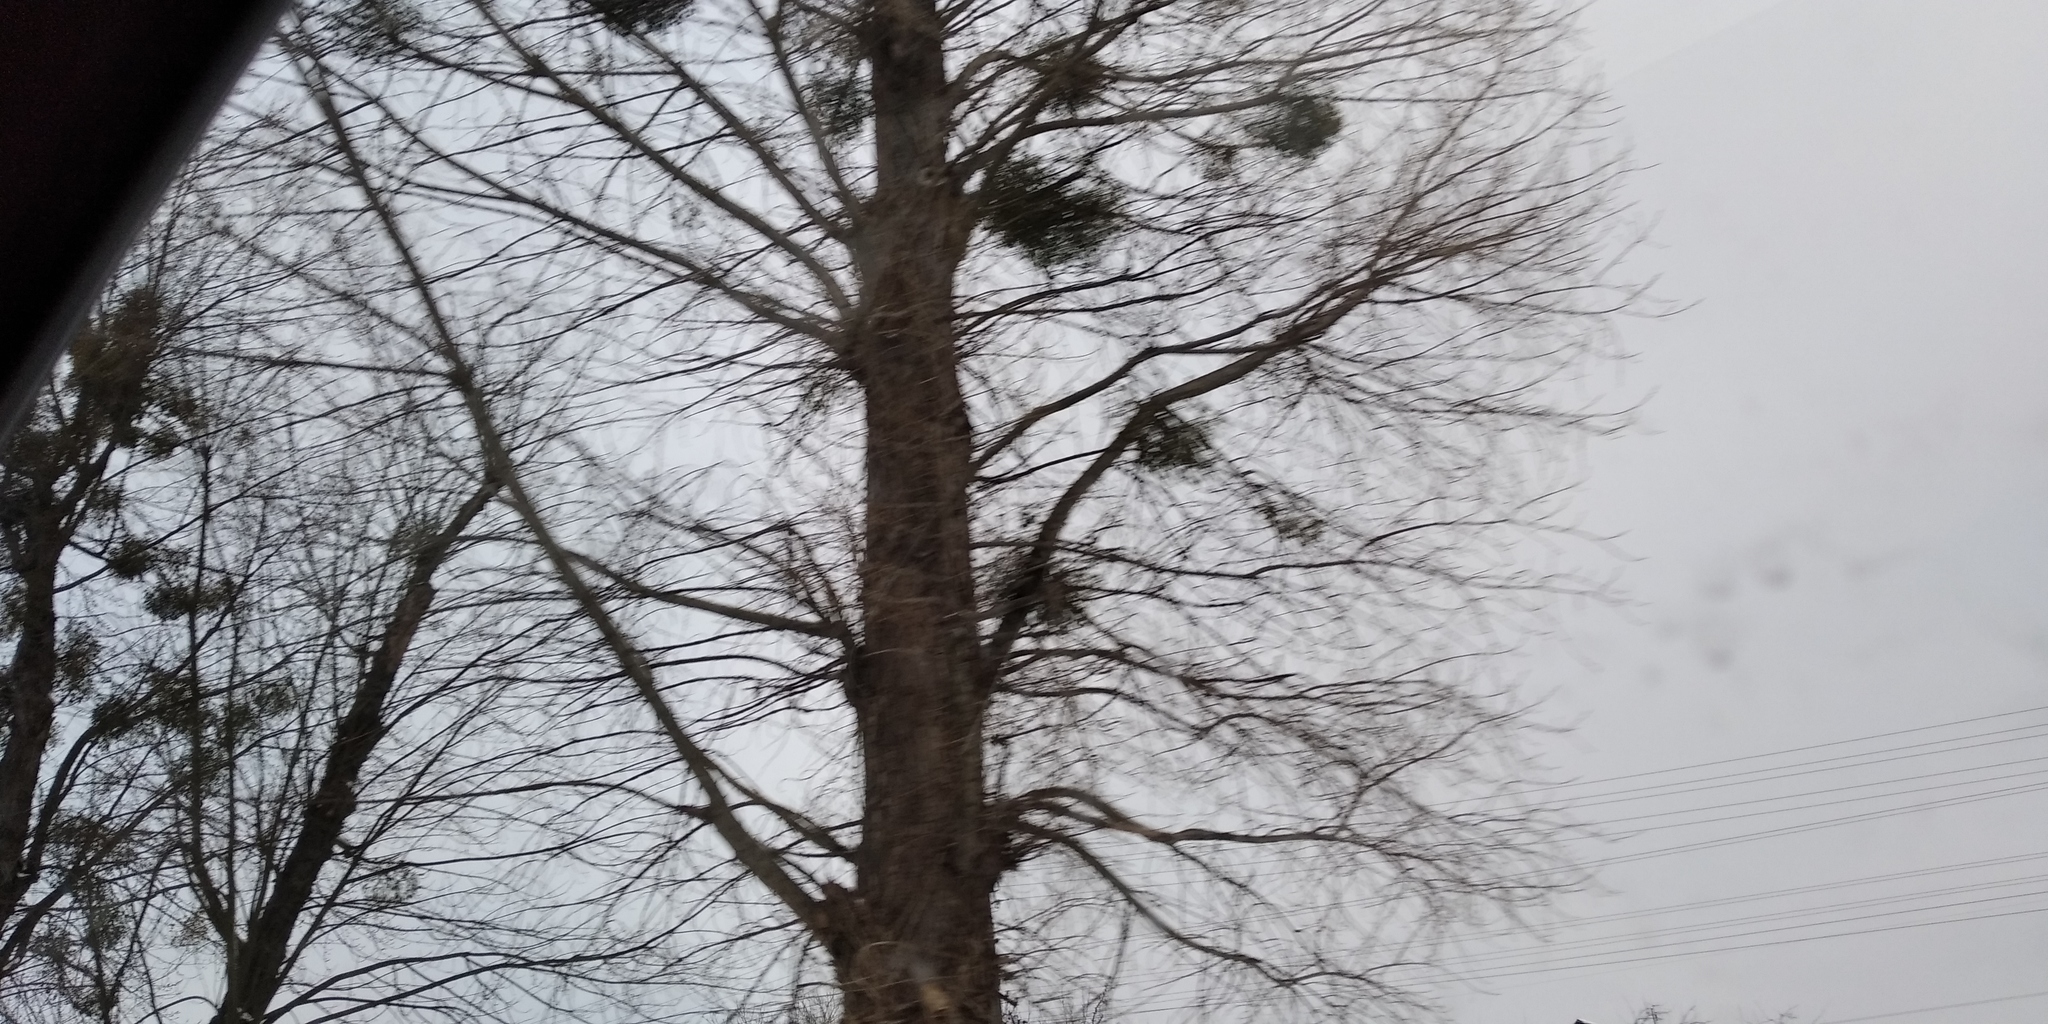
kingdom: Plantae
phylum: Tracheophyta
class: Magnoliopsida
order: Santalales
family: Viscaceae
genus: Viscum
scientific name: Viscum album
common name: Mistletoe
